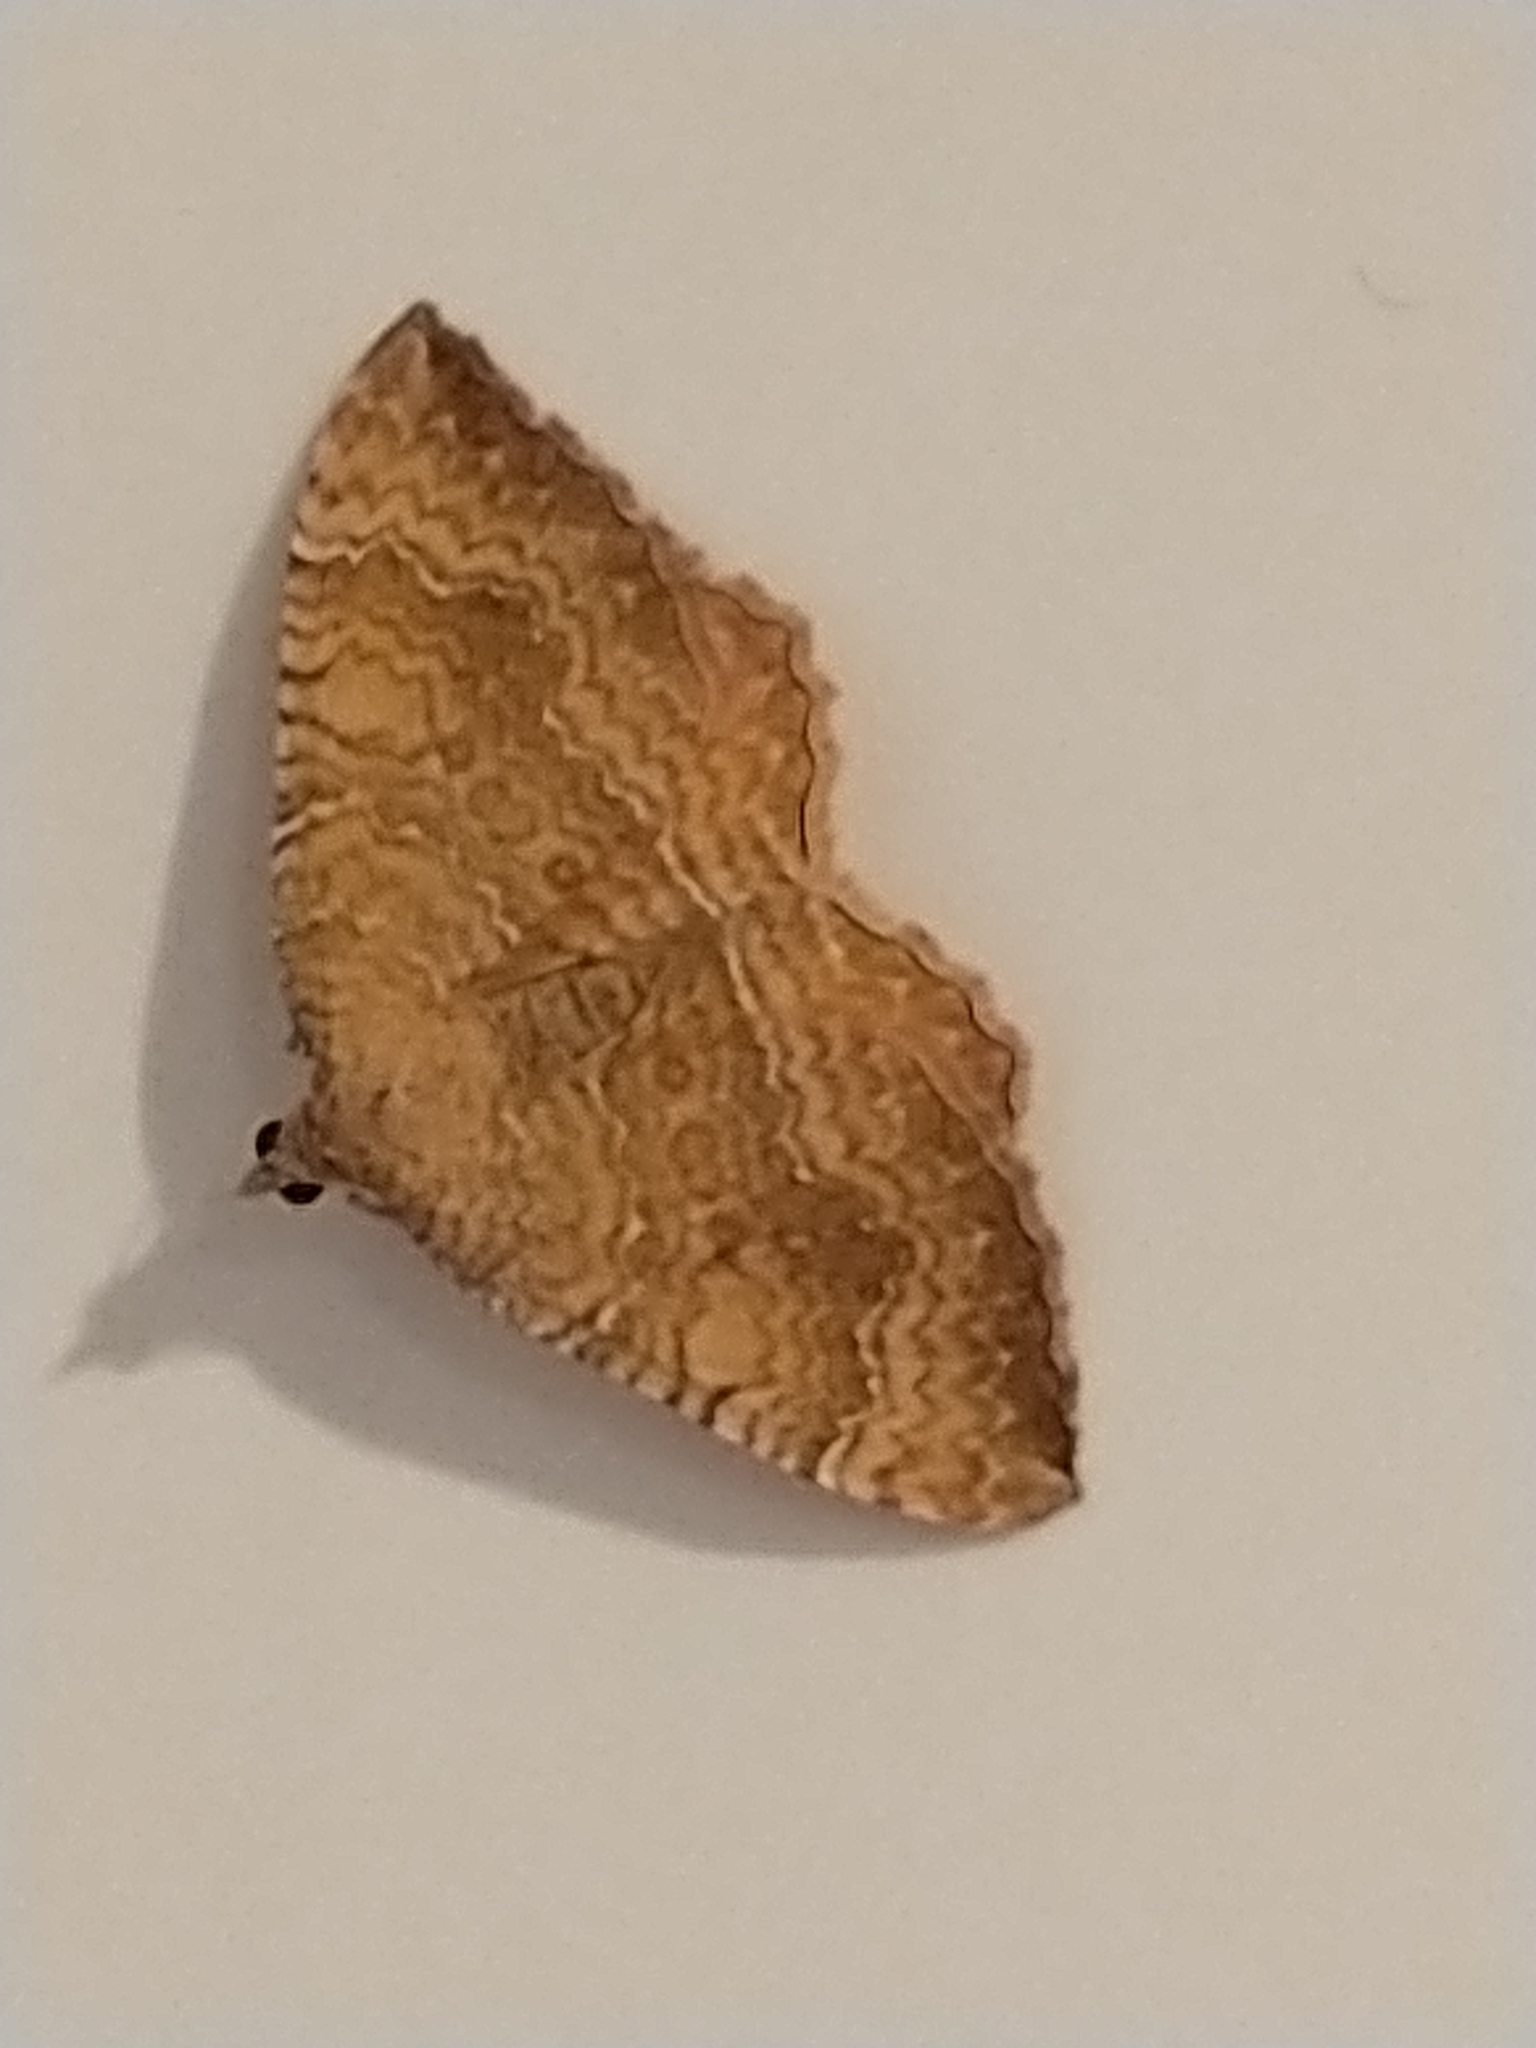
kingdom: Animalia
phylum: Arthropoda
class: Insecta
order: Lepidoptera
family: Geometridae
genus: Camptogramma
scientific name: Camptogramma bilineata
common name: Yellow shell
